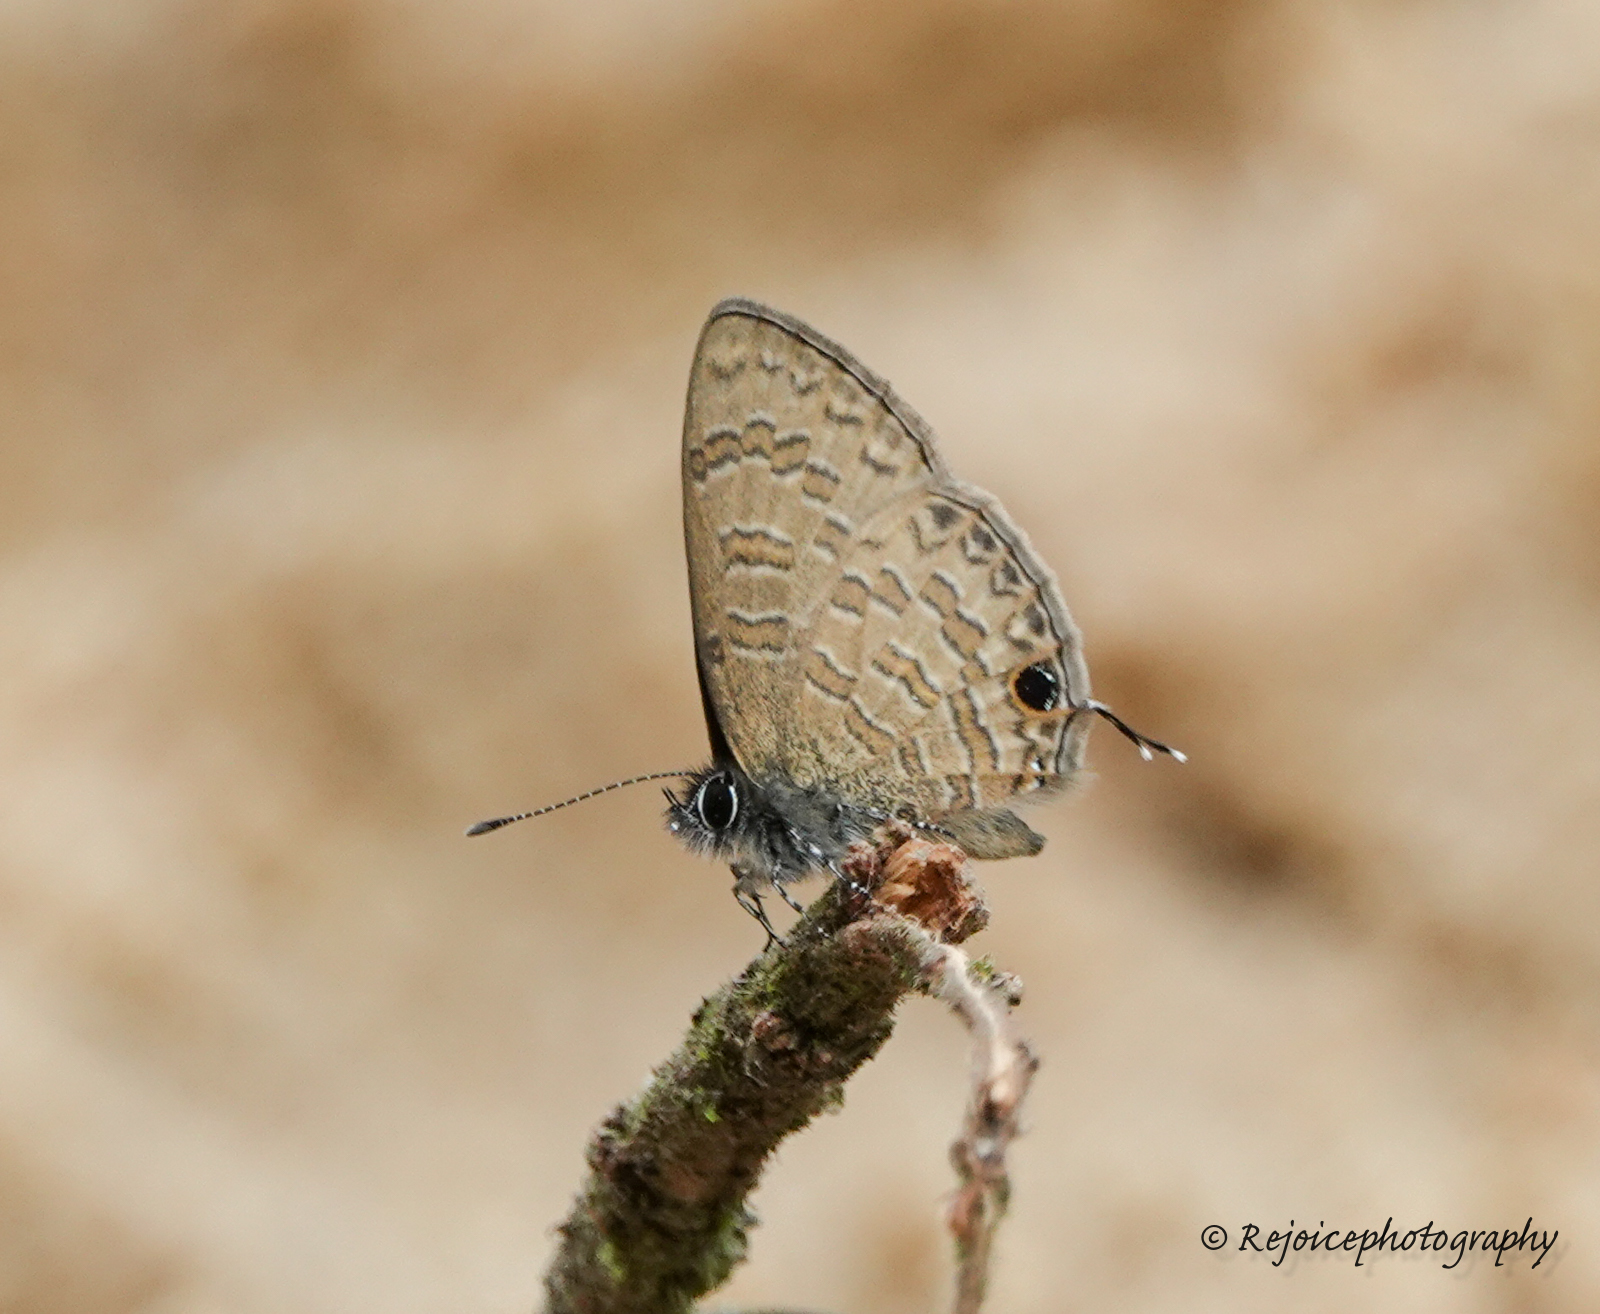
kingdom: Animalia
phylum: Arthropoda
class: Insecta
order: Lepidoptera
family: Lycaenidae
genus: Prosotas
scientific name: Prosotas nora
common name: Common line blue
